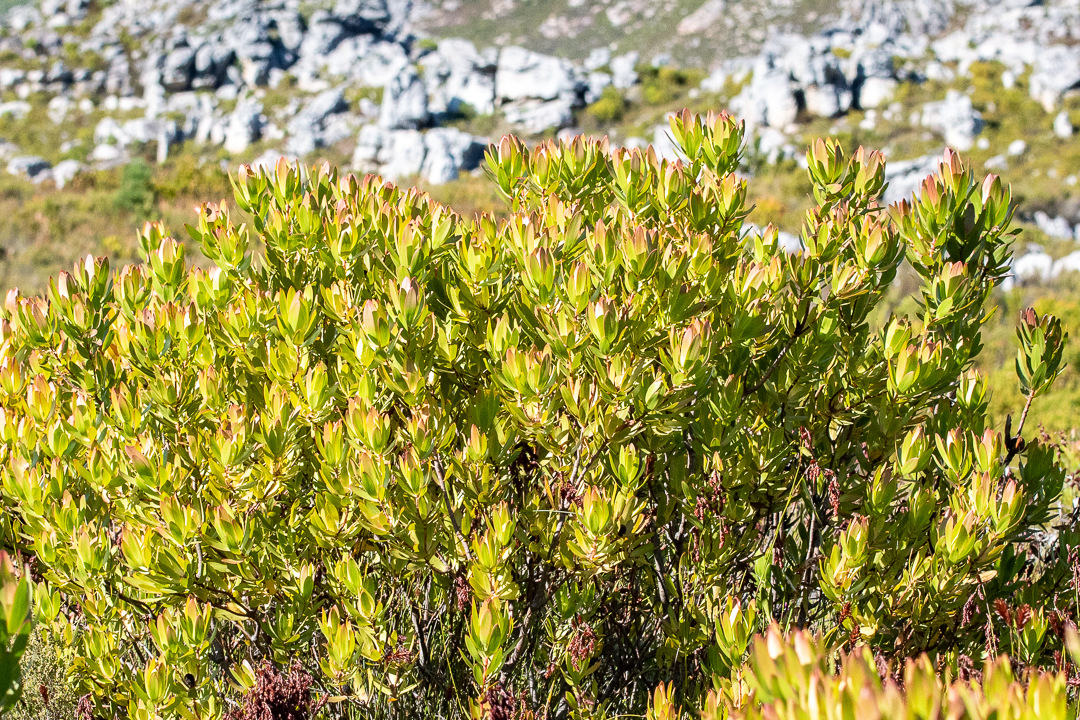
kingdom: Plantae
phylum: Tracheophyta
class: Magnoliopsida
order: Proteales
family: Proteaceae
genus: Leucadendron
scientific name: Leucadendron gandogeri
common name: Broad-leaf conebush
